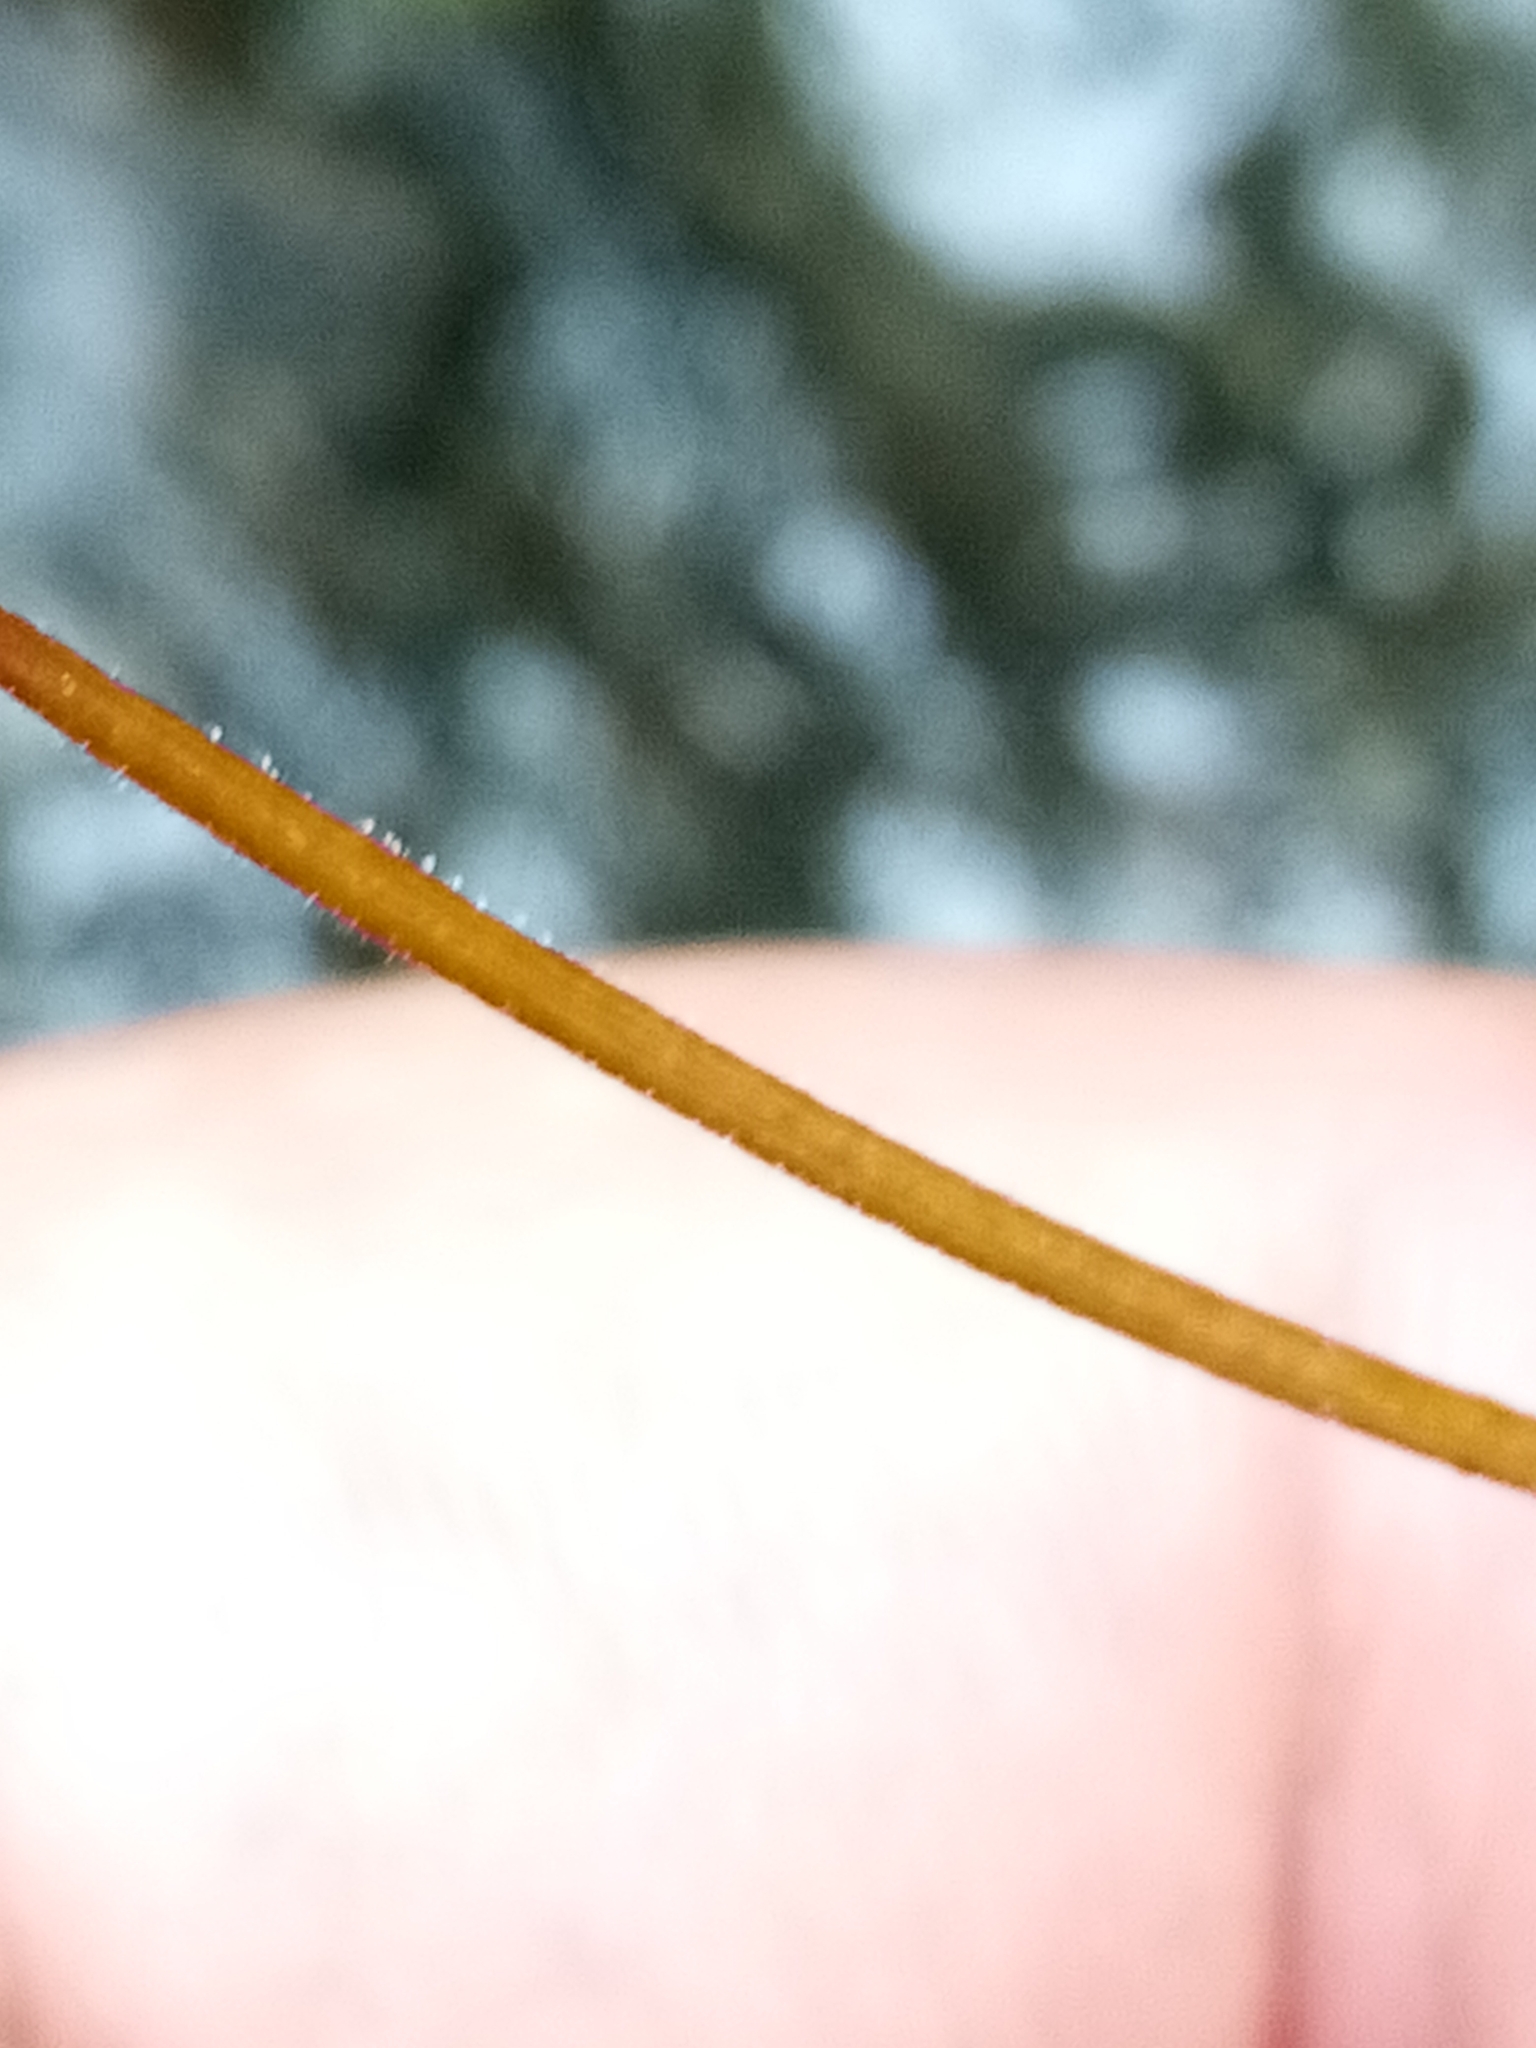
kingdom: Plantae
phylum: Tracheophyta
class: Magnoliopsida
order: Myrtales
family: Onagraceae
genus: Epilobium
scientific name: Epilobium rotundifolium
